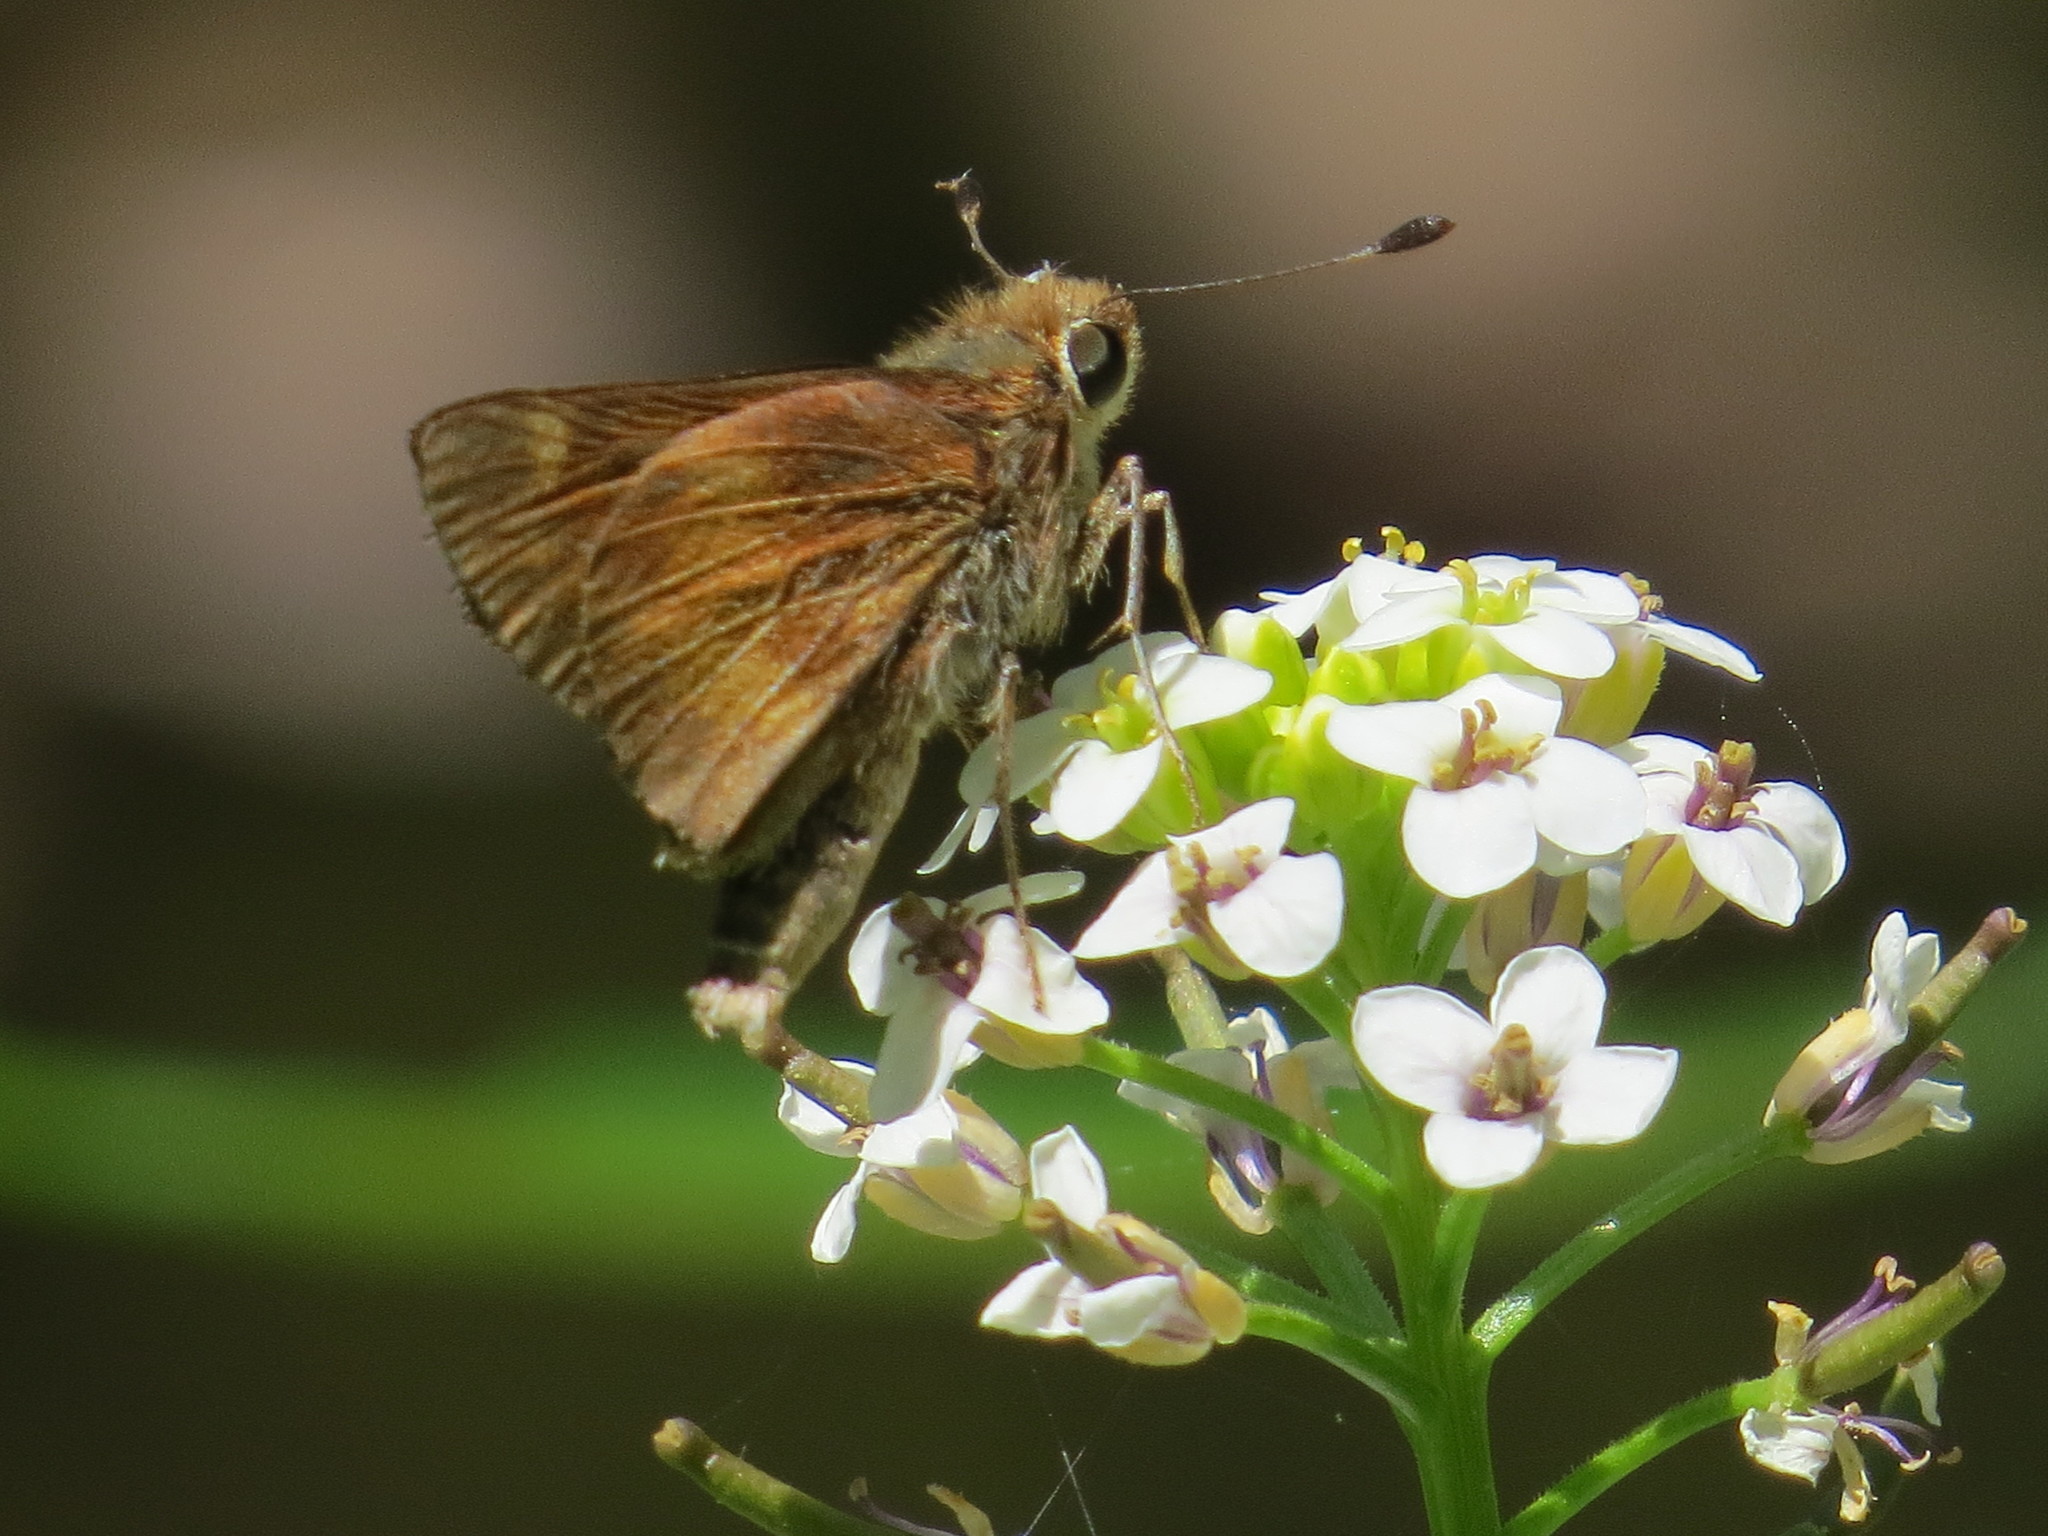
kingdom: Animalia
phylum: Arthropoda
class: Insecta
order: Lepidoptera
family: Hesperiidae
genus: Lon
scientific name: Lon melane
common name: Umber skipper
